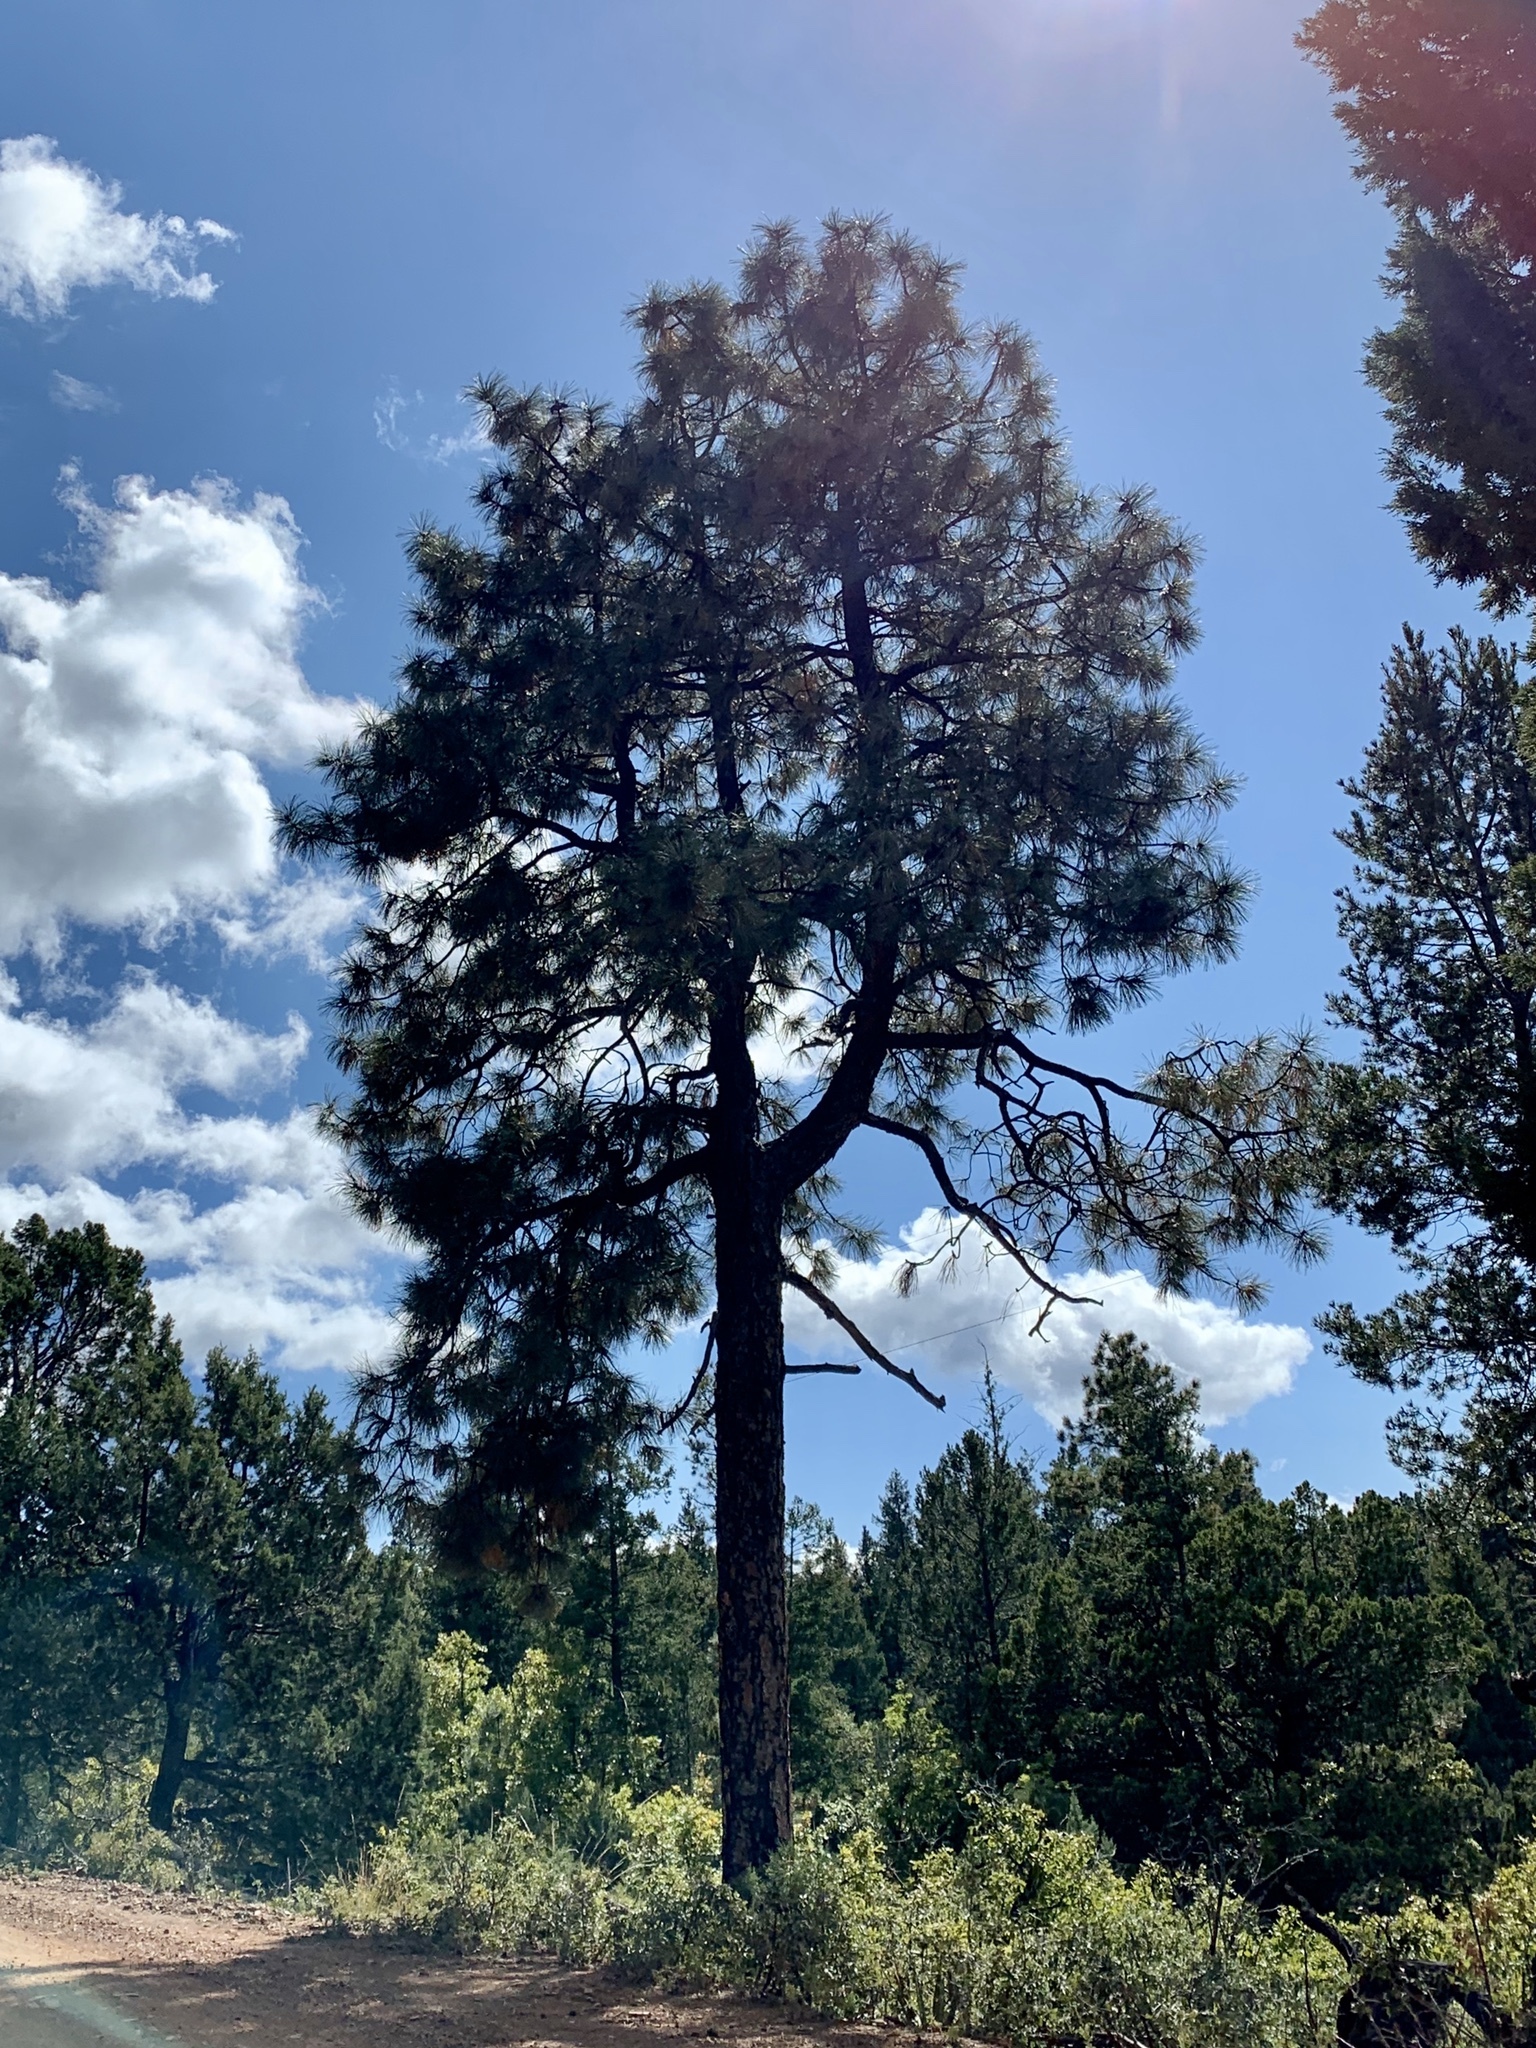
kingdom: Plantae
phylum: Tracheophyta
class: Pinopsida
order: Pinales
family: Pinaceae
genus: Pinus
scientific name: Pinus ponderosa
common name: Western yellow-pine
